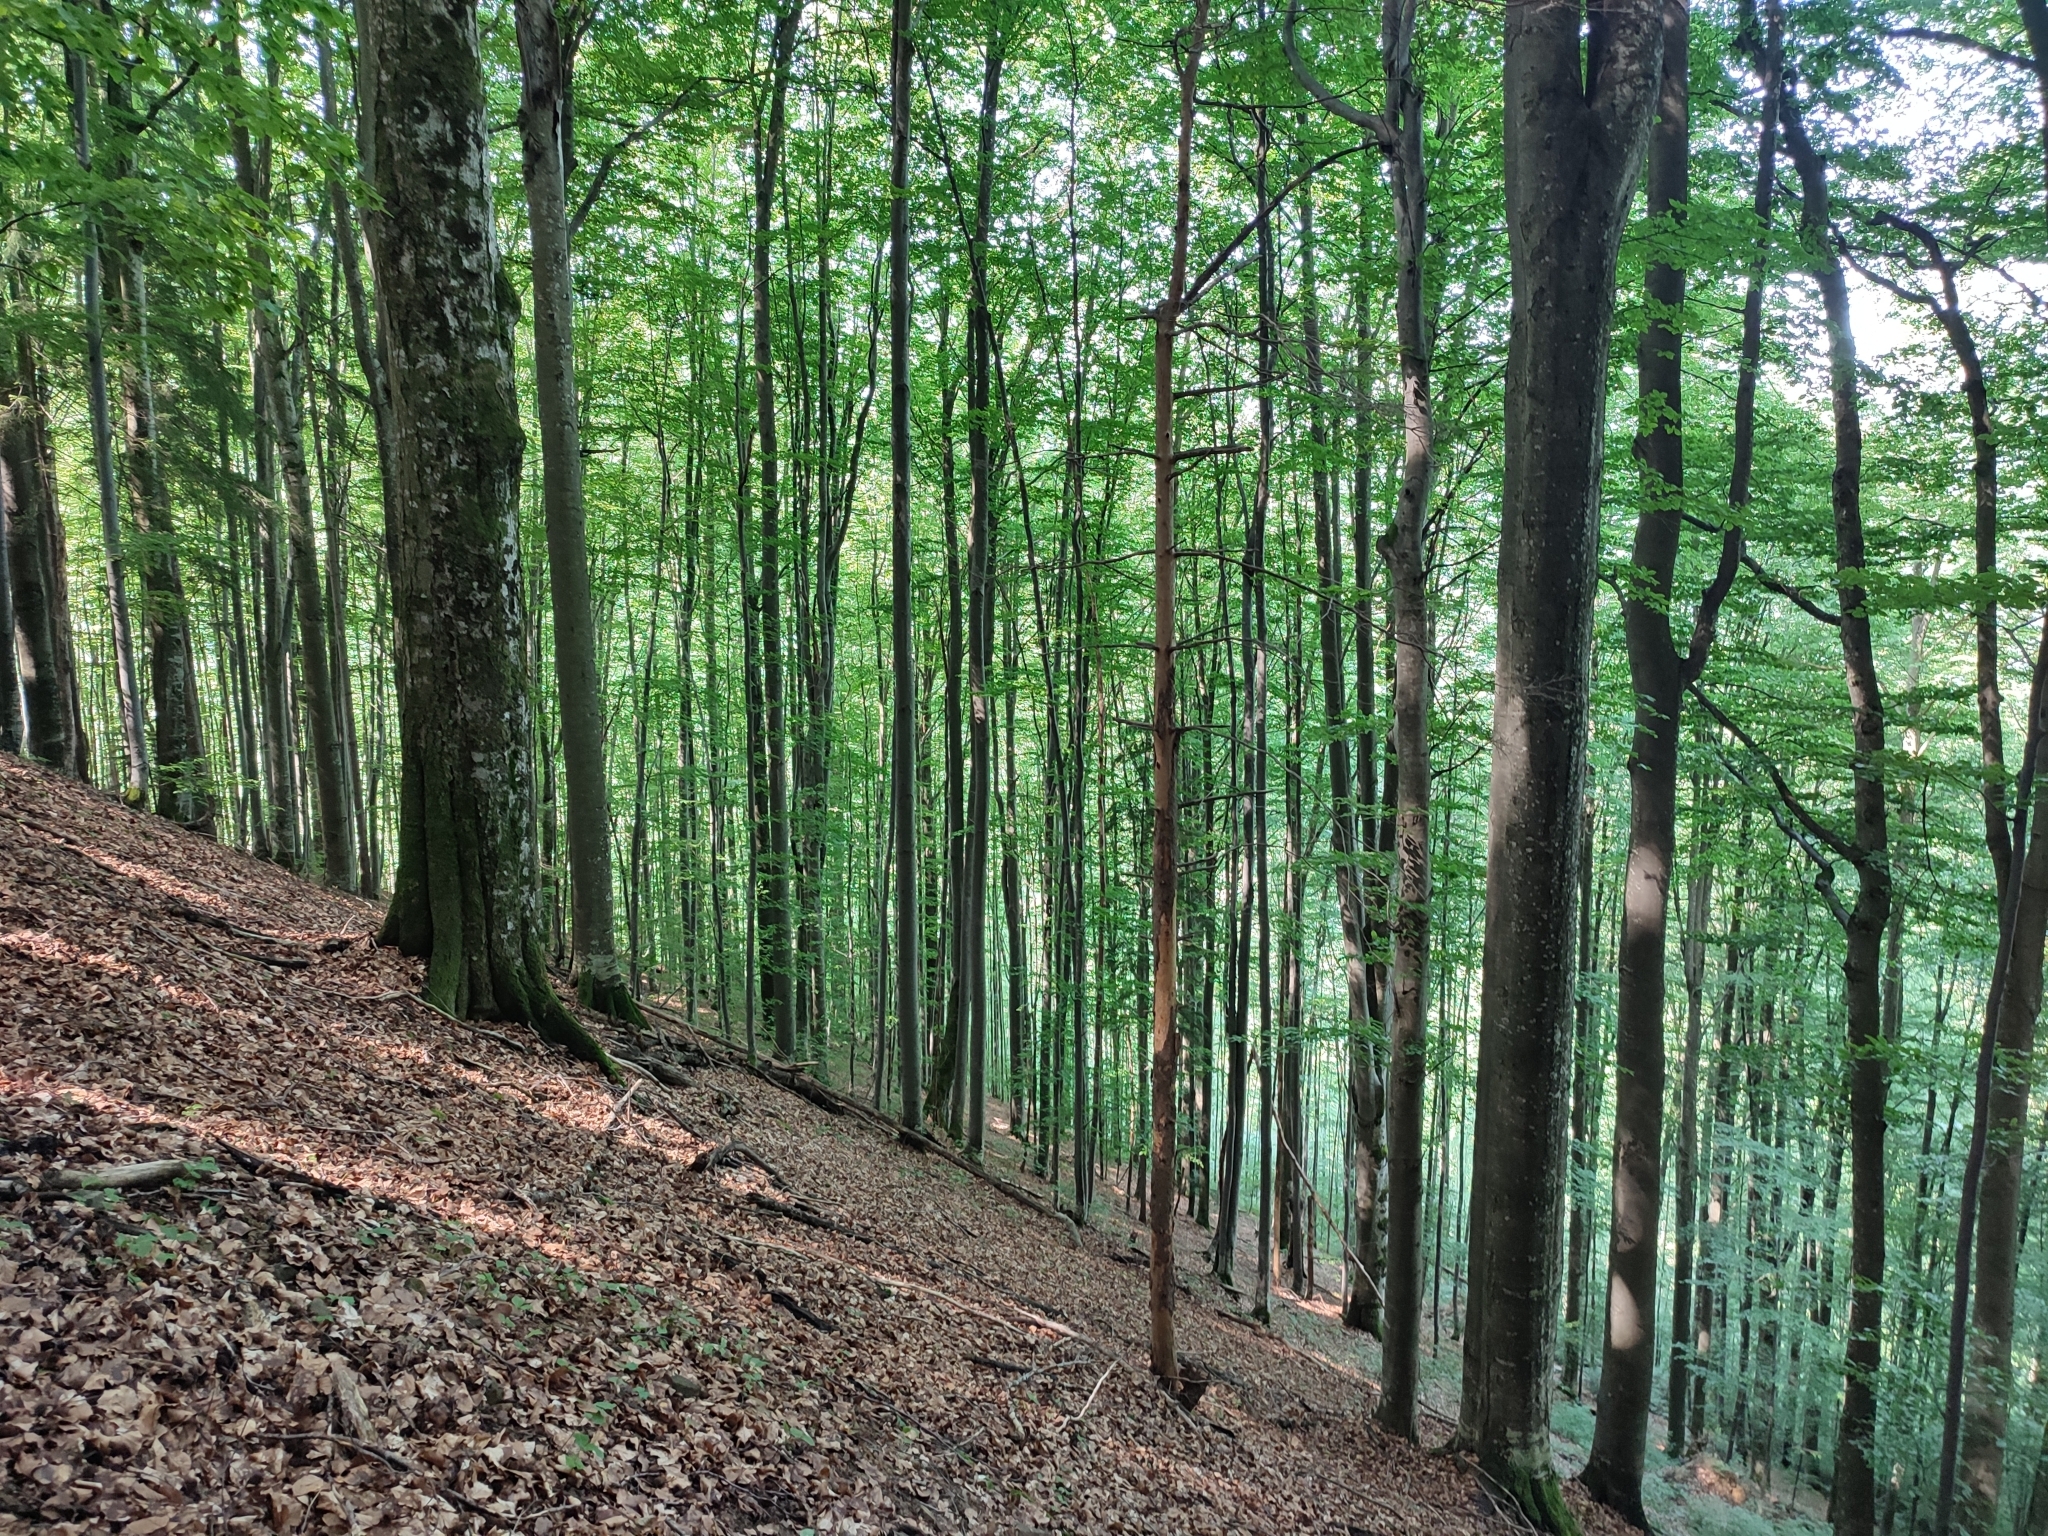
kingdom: Plantae
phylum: Tracheophyta
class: Magnoliopsida
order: Fagales
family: Fagaceae
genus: Fagus
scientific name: Fagus sylvatica
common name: Beech
